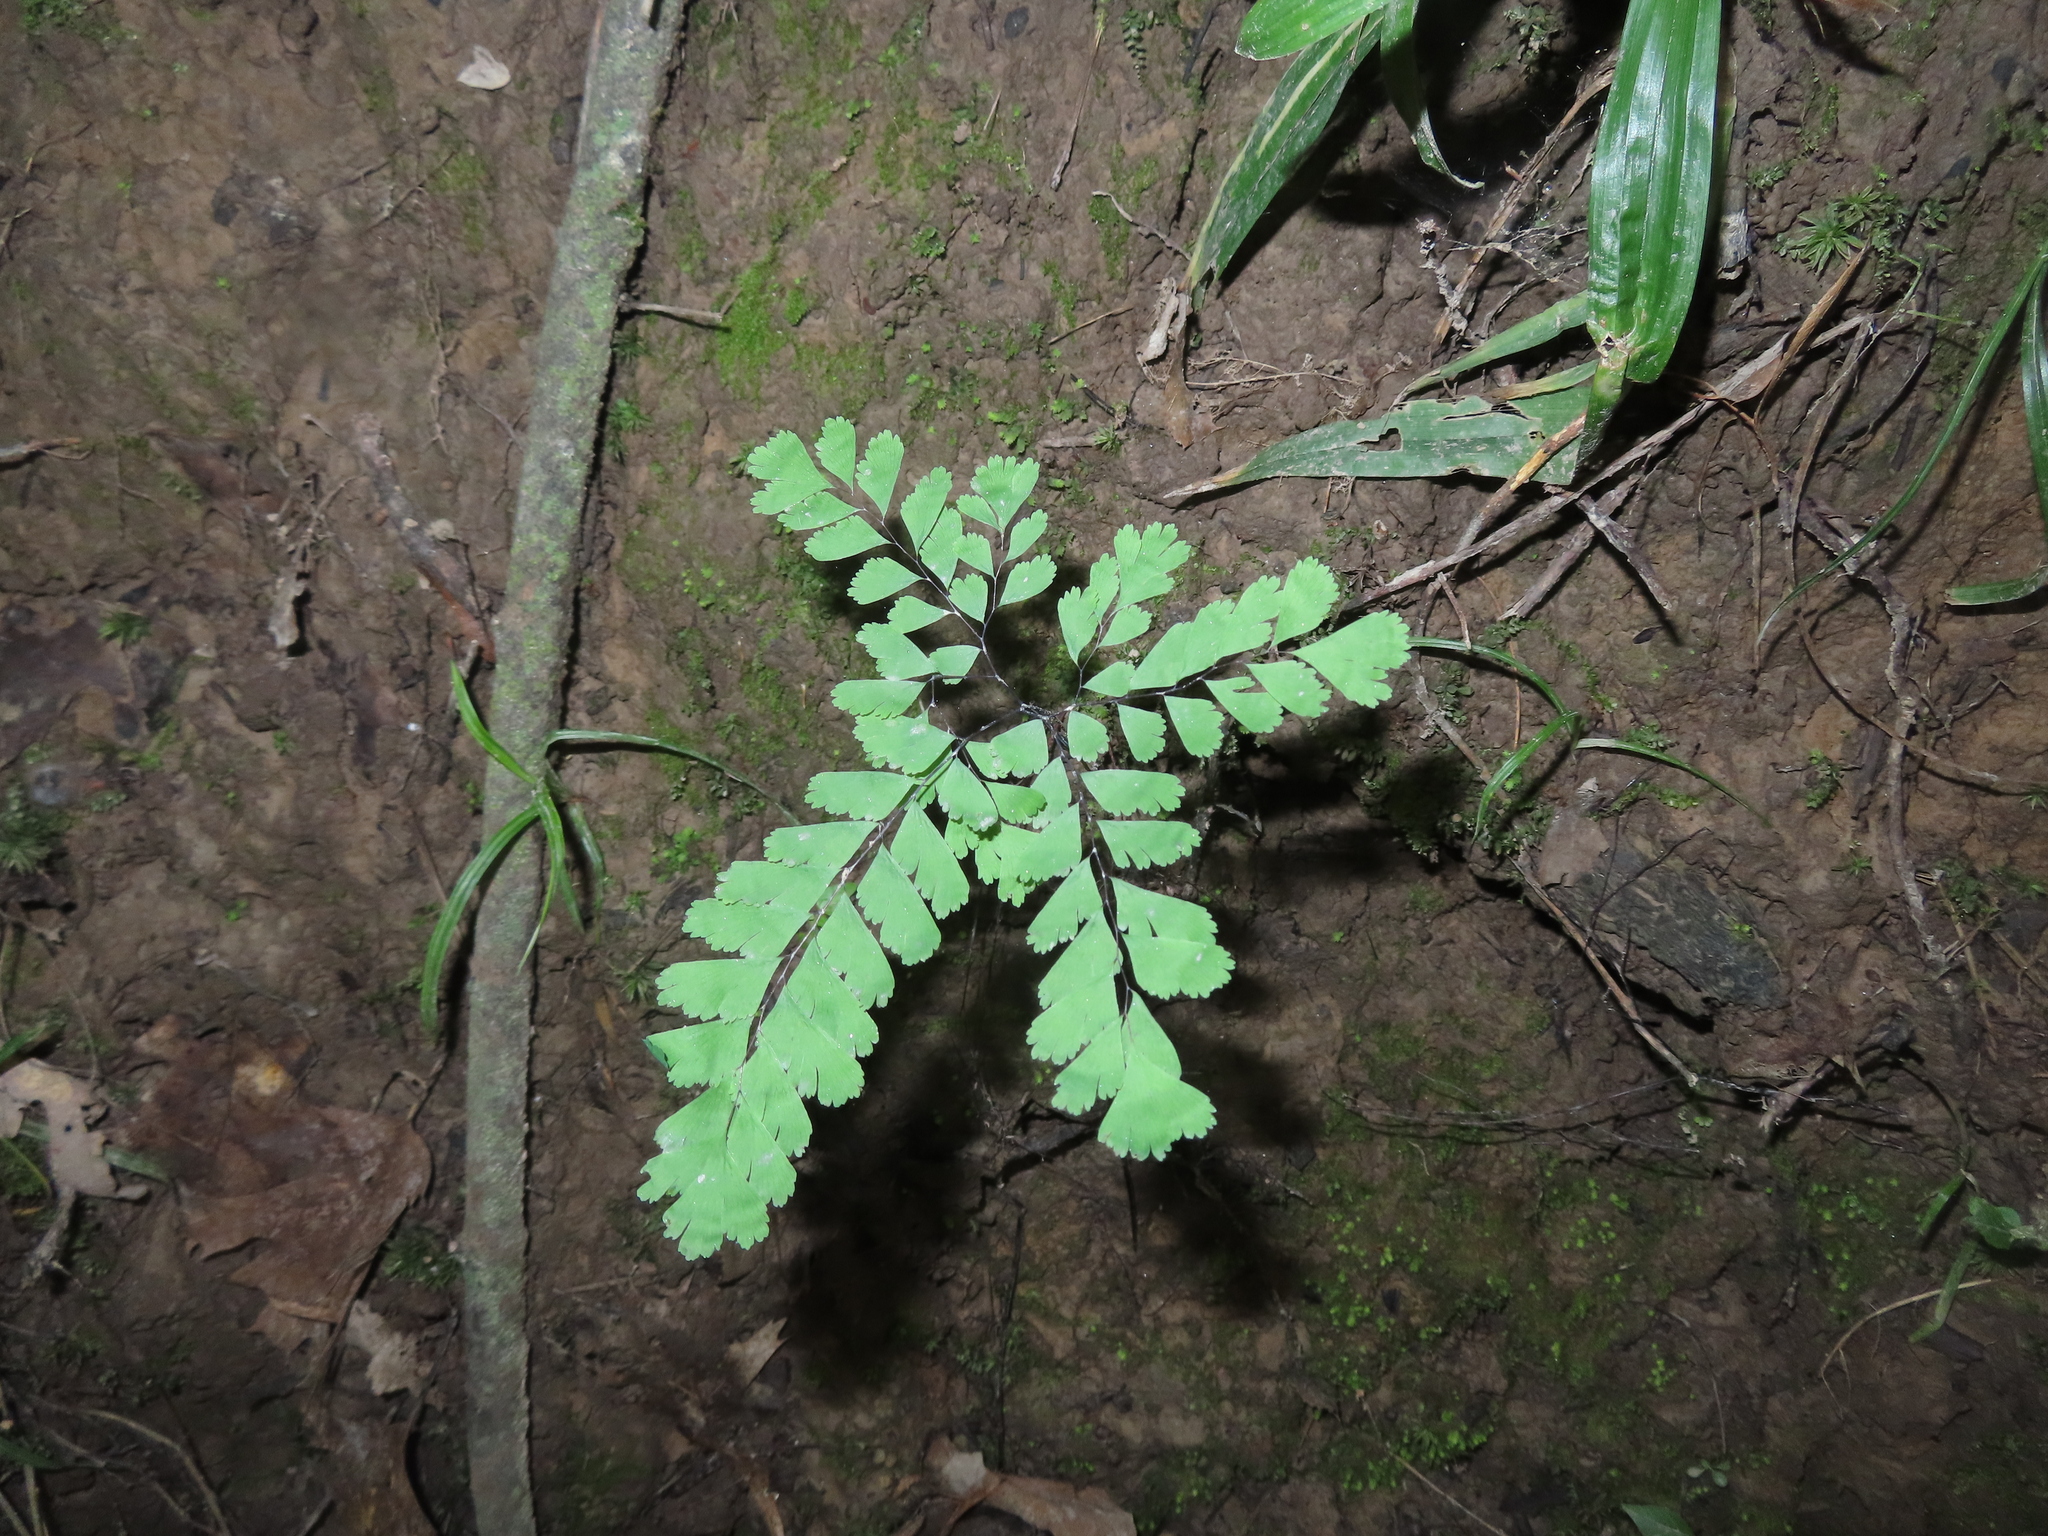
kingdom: Plantae
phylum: Tracheophyta
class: Polypodiopsida
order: Polypodiales
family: Pteridaceae
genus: Adiantum
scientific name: Adiantum pedatum
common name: Five-finger fern
